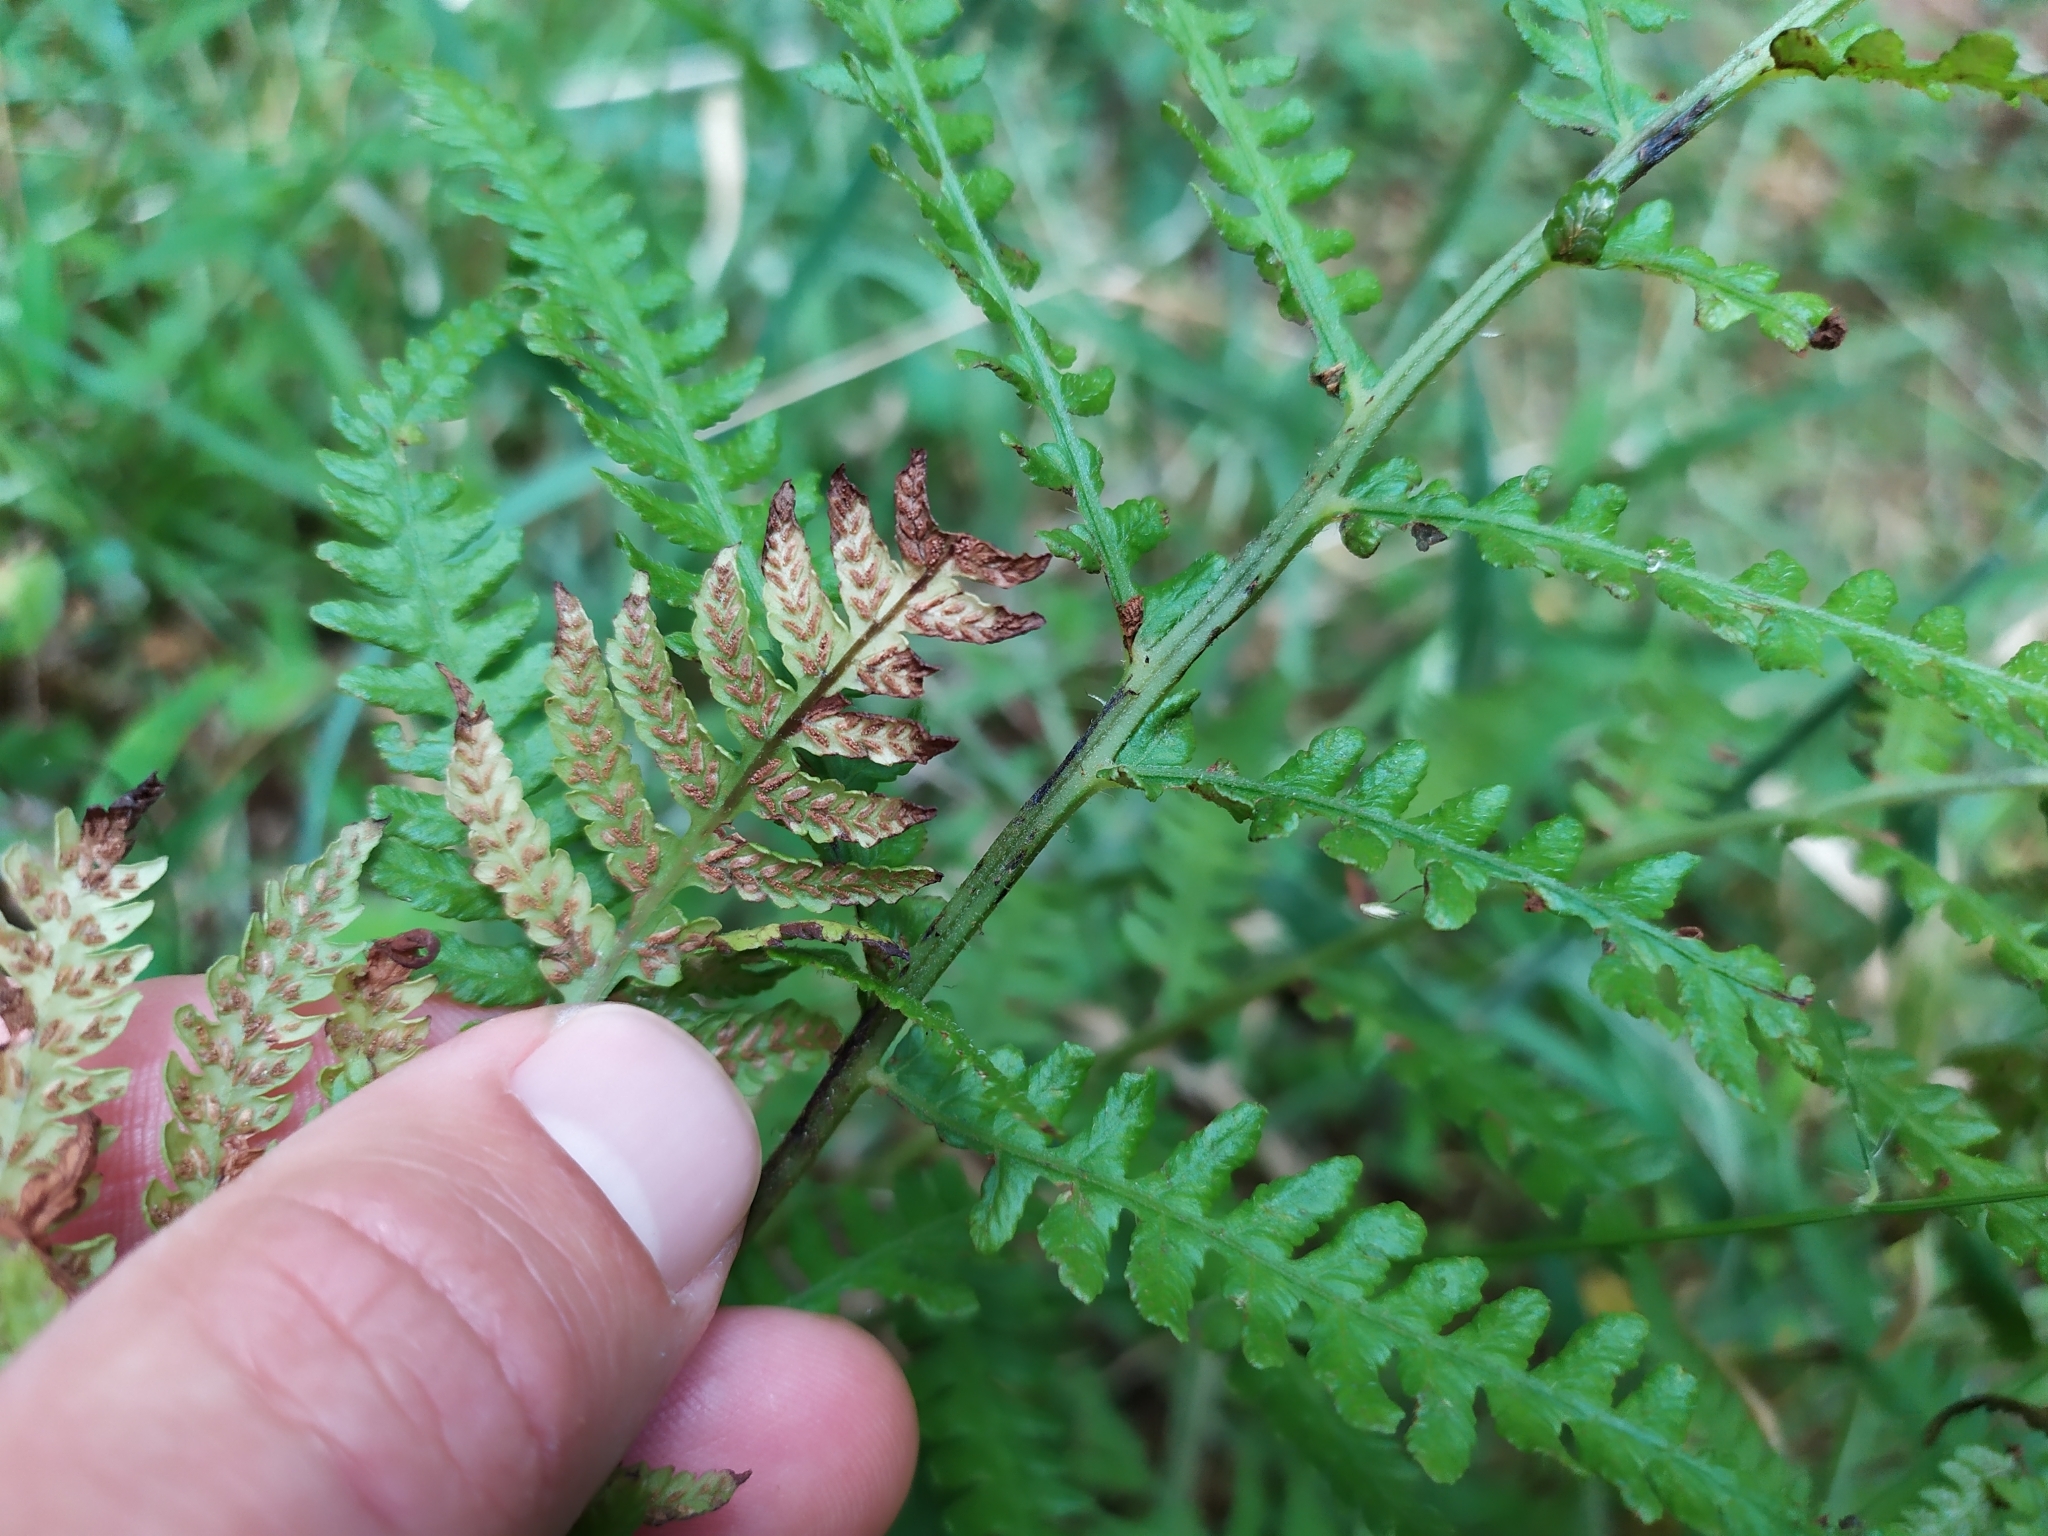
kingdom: Plantae
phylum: Tracheophyta
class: Polypodiopsida
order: Polypodiales
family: Athyriaceae
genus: Diplazium
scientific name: Diplazium congruum
